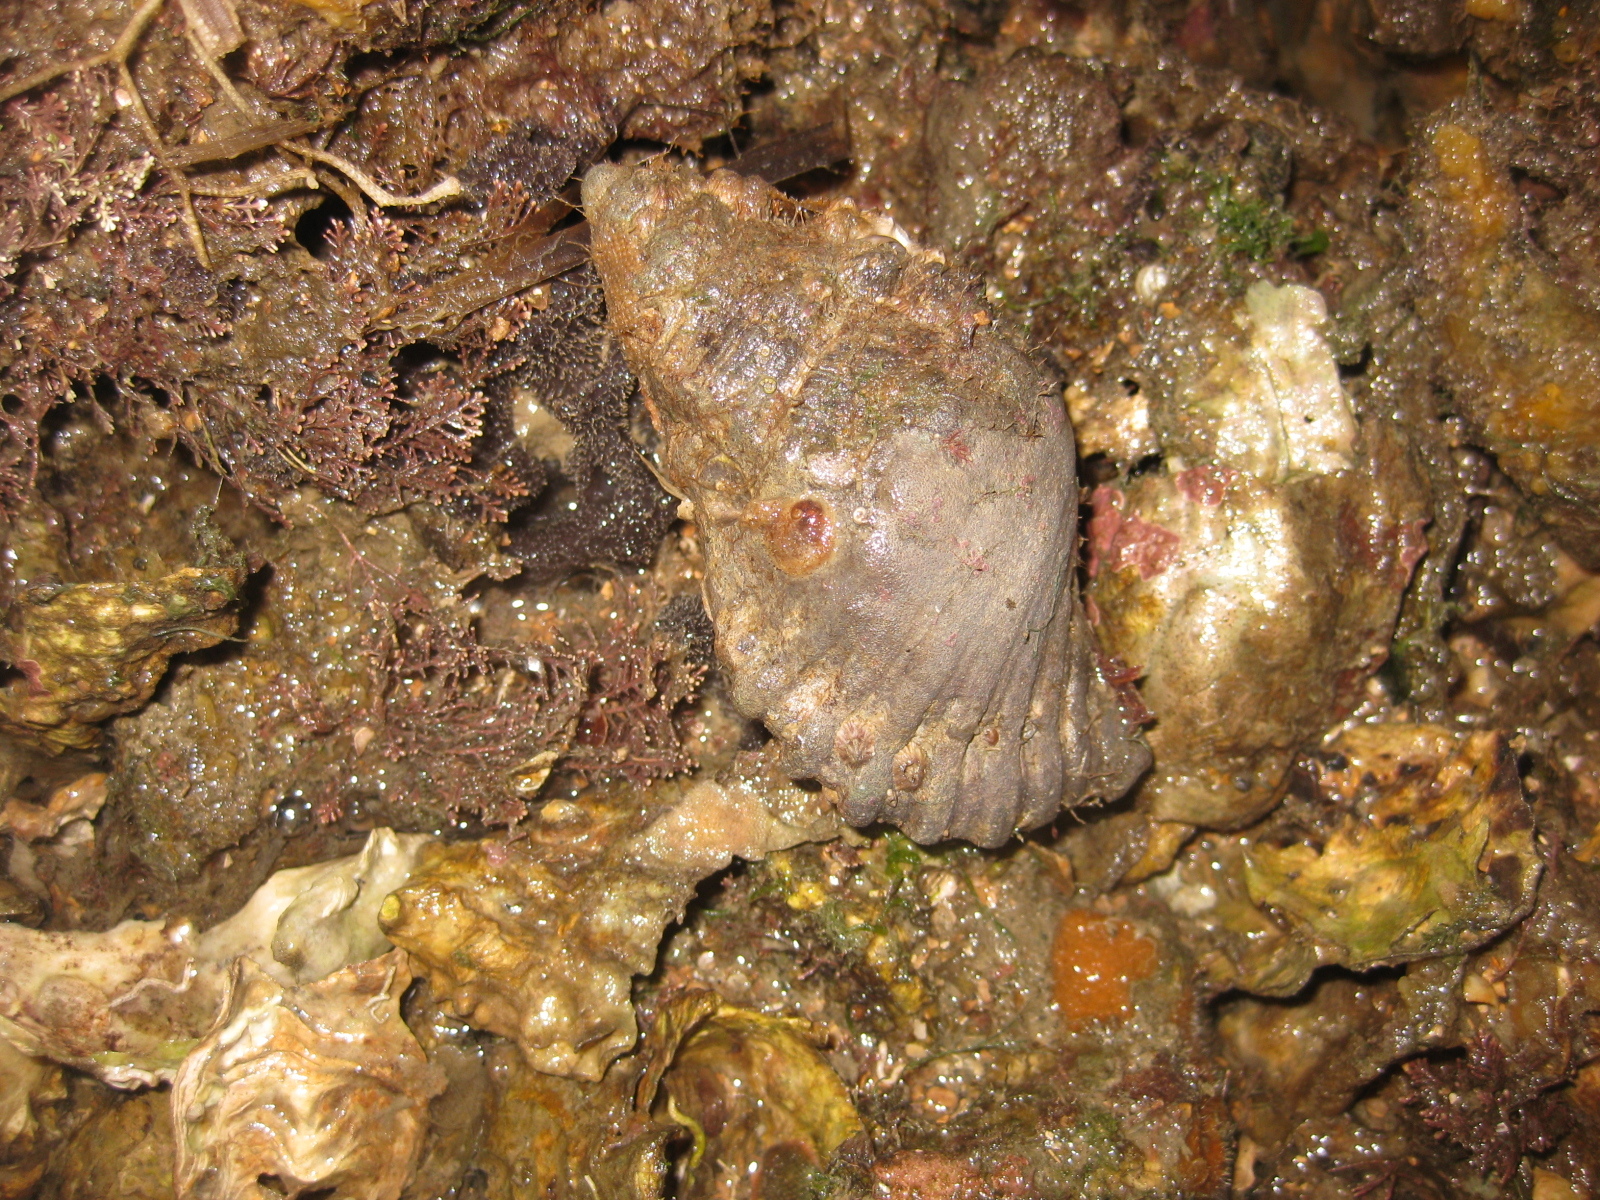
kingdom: Animalia
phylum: Mollusca
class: Gastropoda
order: Littorinimorpha
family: Cymatiidae
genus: Cabestana
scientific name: Cabestana spengleri
